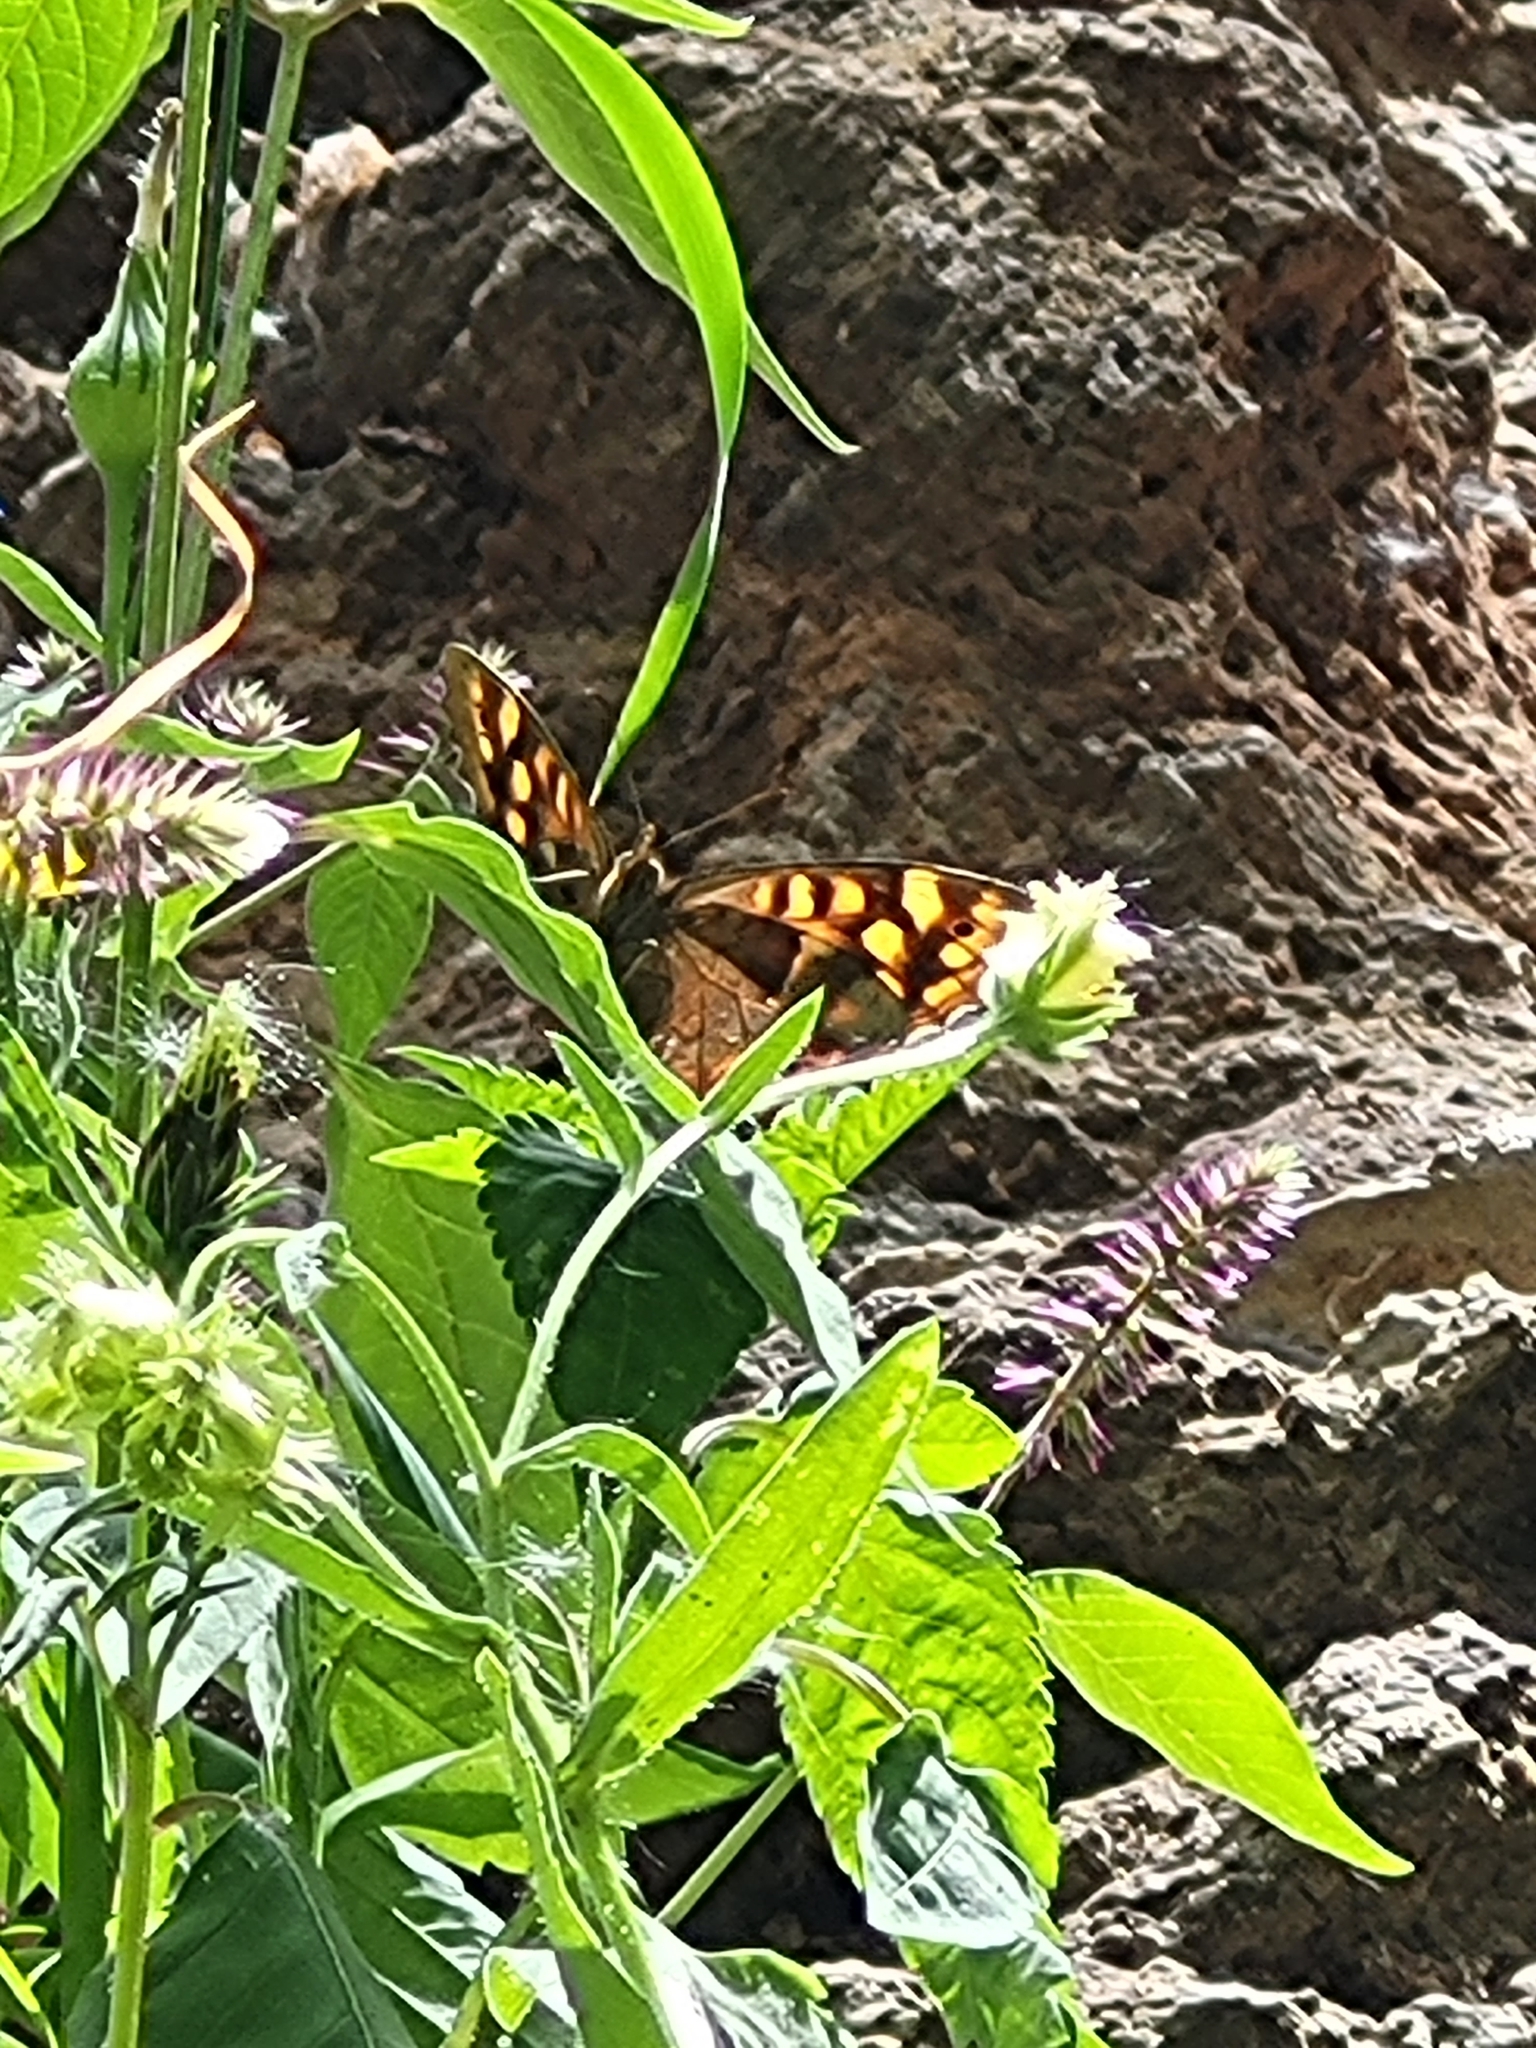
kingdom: Animalia
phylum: Arthropoda
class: Insecta
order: Lepidoptera
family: Nymphalidae
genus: Pararge
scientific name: Pararge aegeria
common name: Speckled wood
